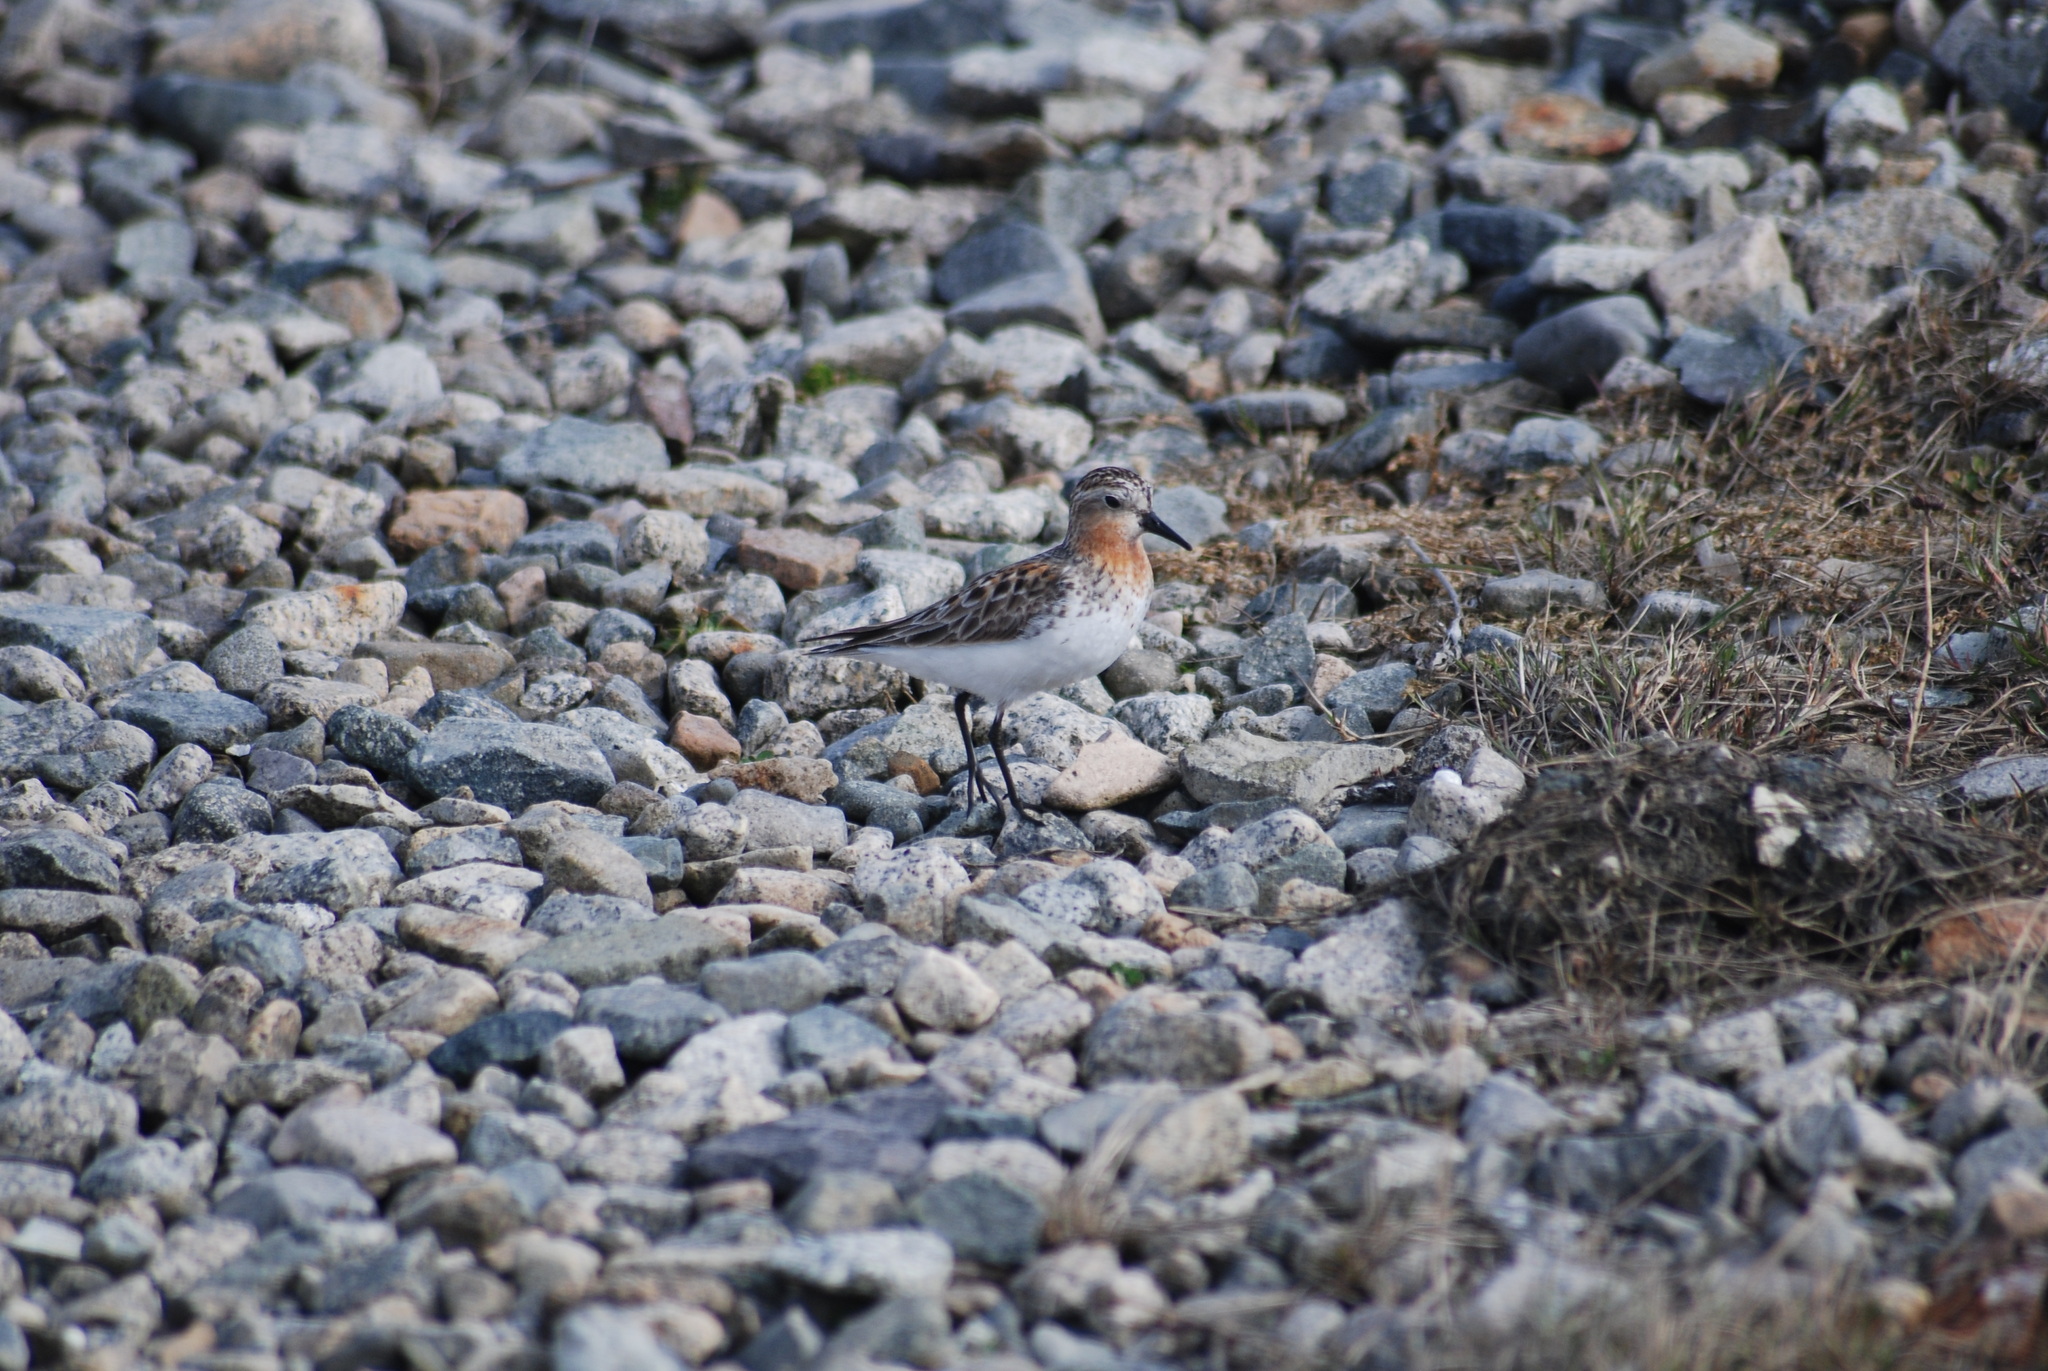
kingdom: Animalia
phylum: Chordata
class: Aves
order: Charadriiformes
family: Scolopacidae
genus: Calidris
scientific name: Calidris ruficollis
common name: Red-necked stint
